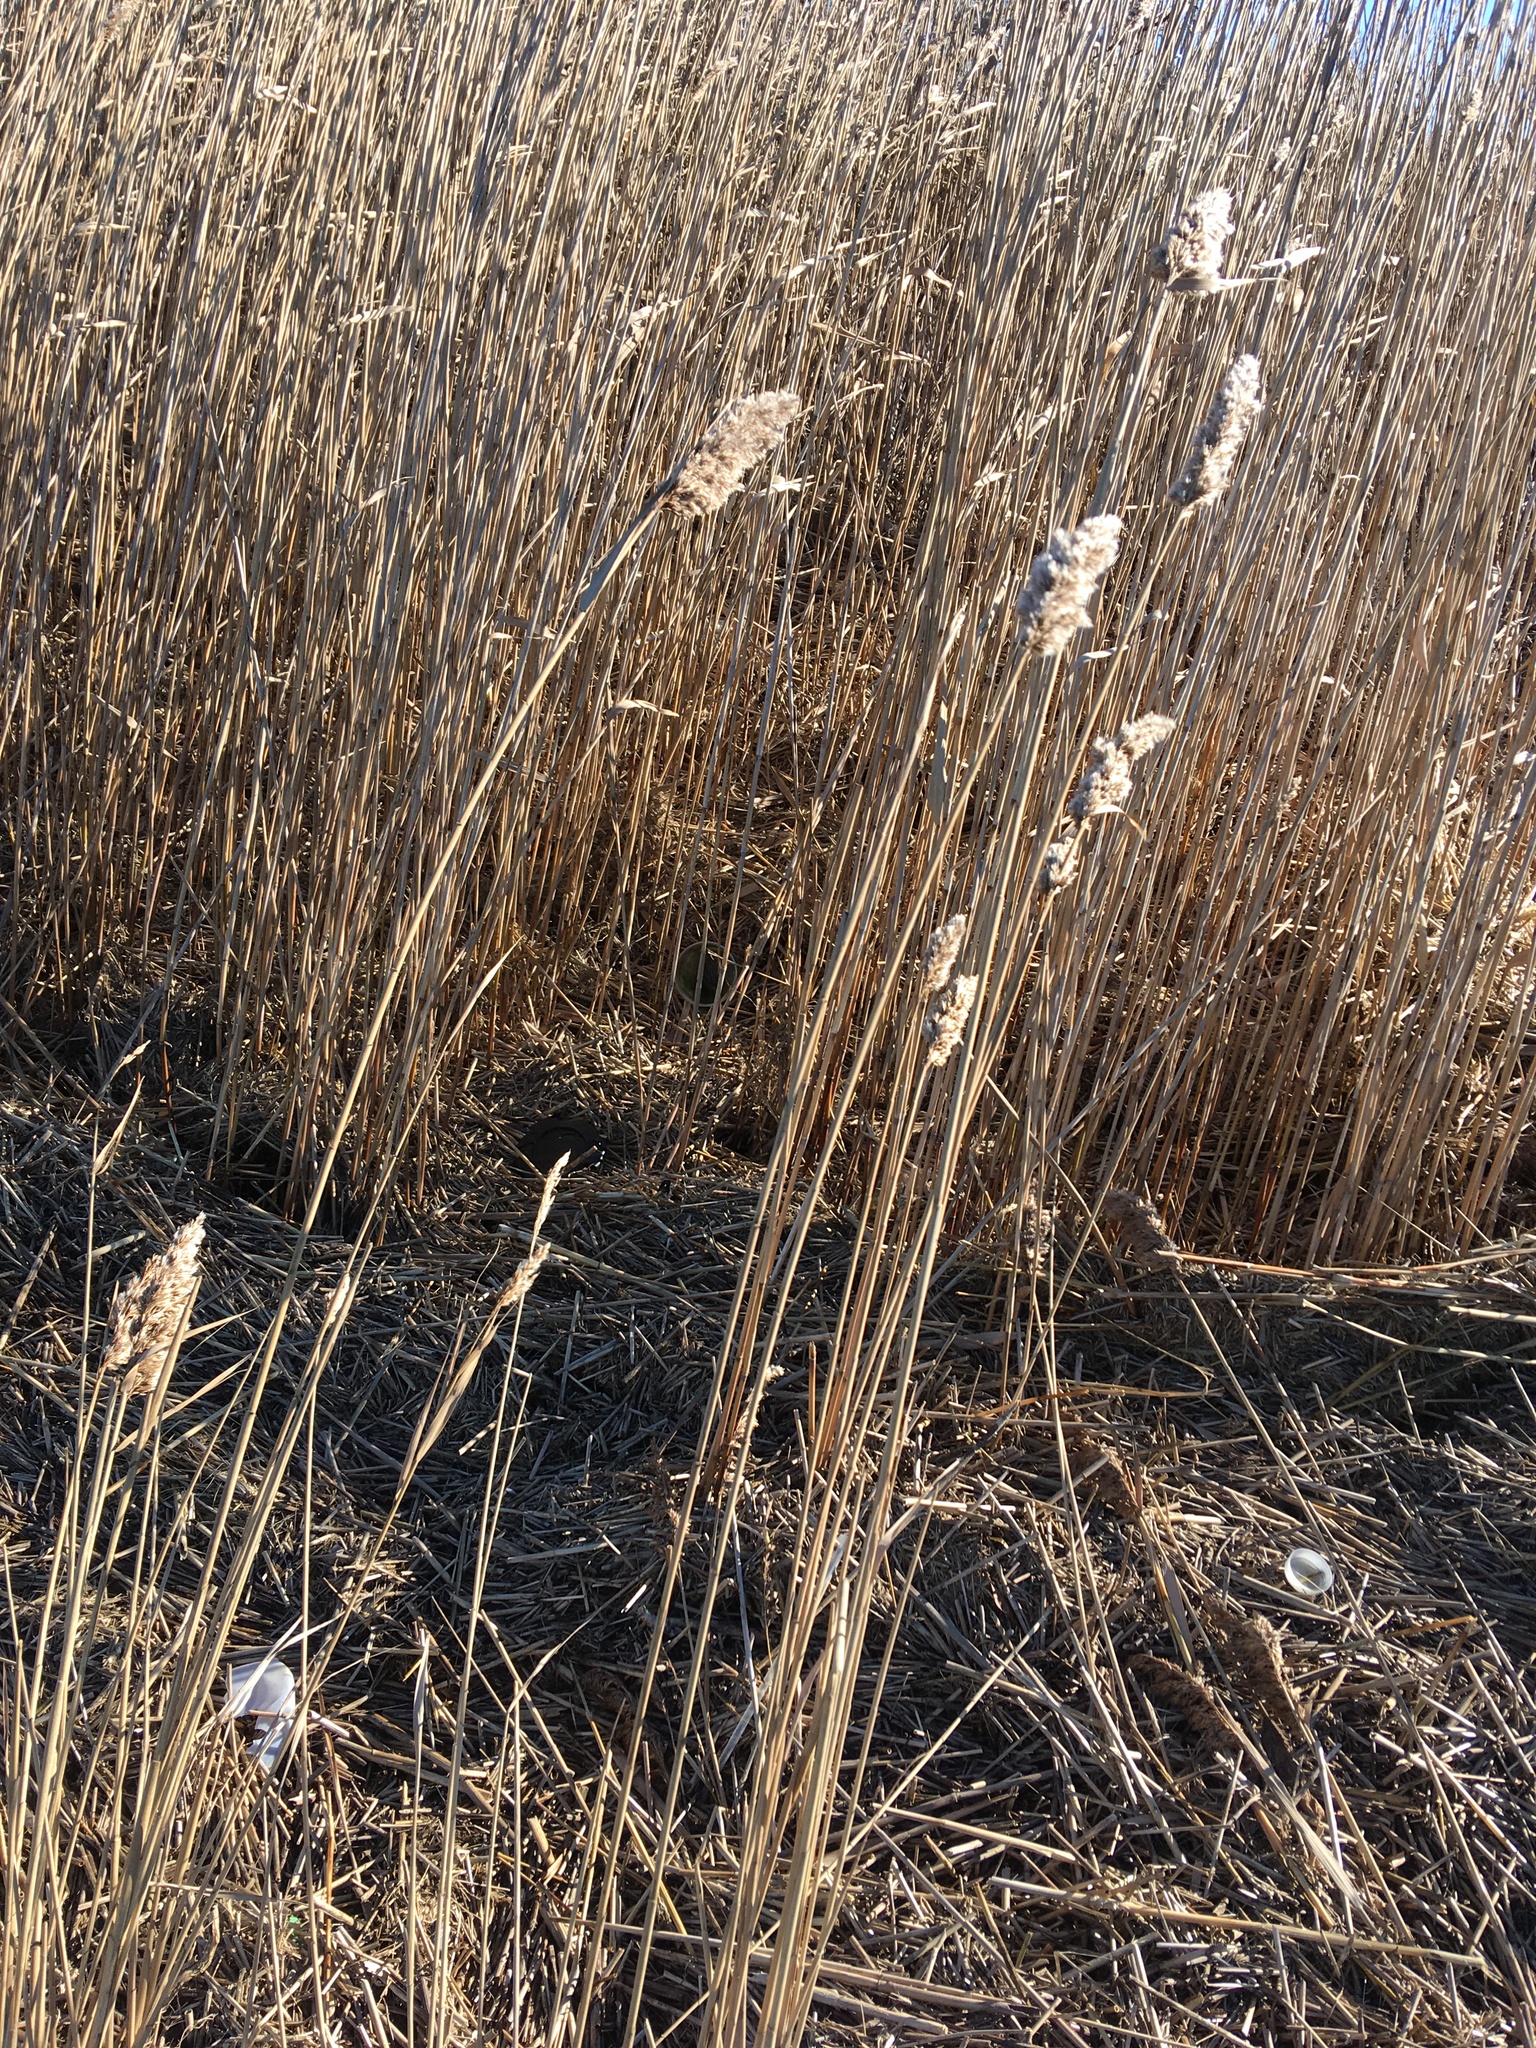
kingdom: Plantae
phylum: Tracheophyta
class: Liliopsida
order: Poales
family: Poaceae
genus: Phragmites
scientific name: Phragmites australis
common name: Common reed
